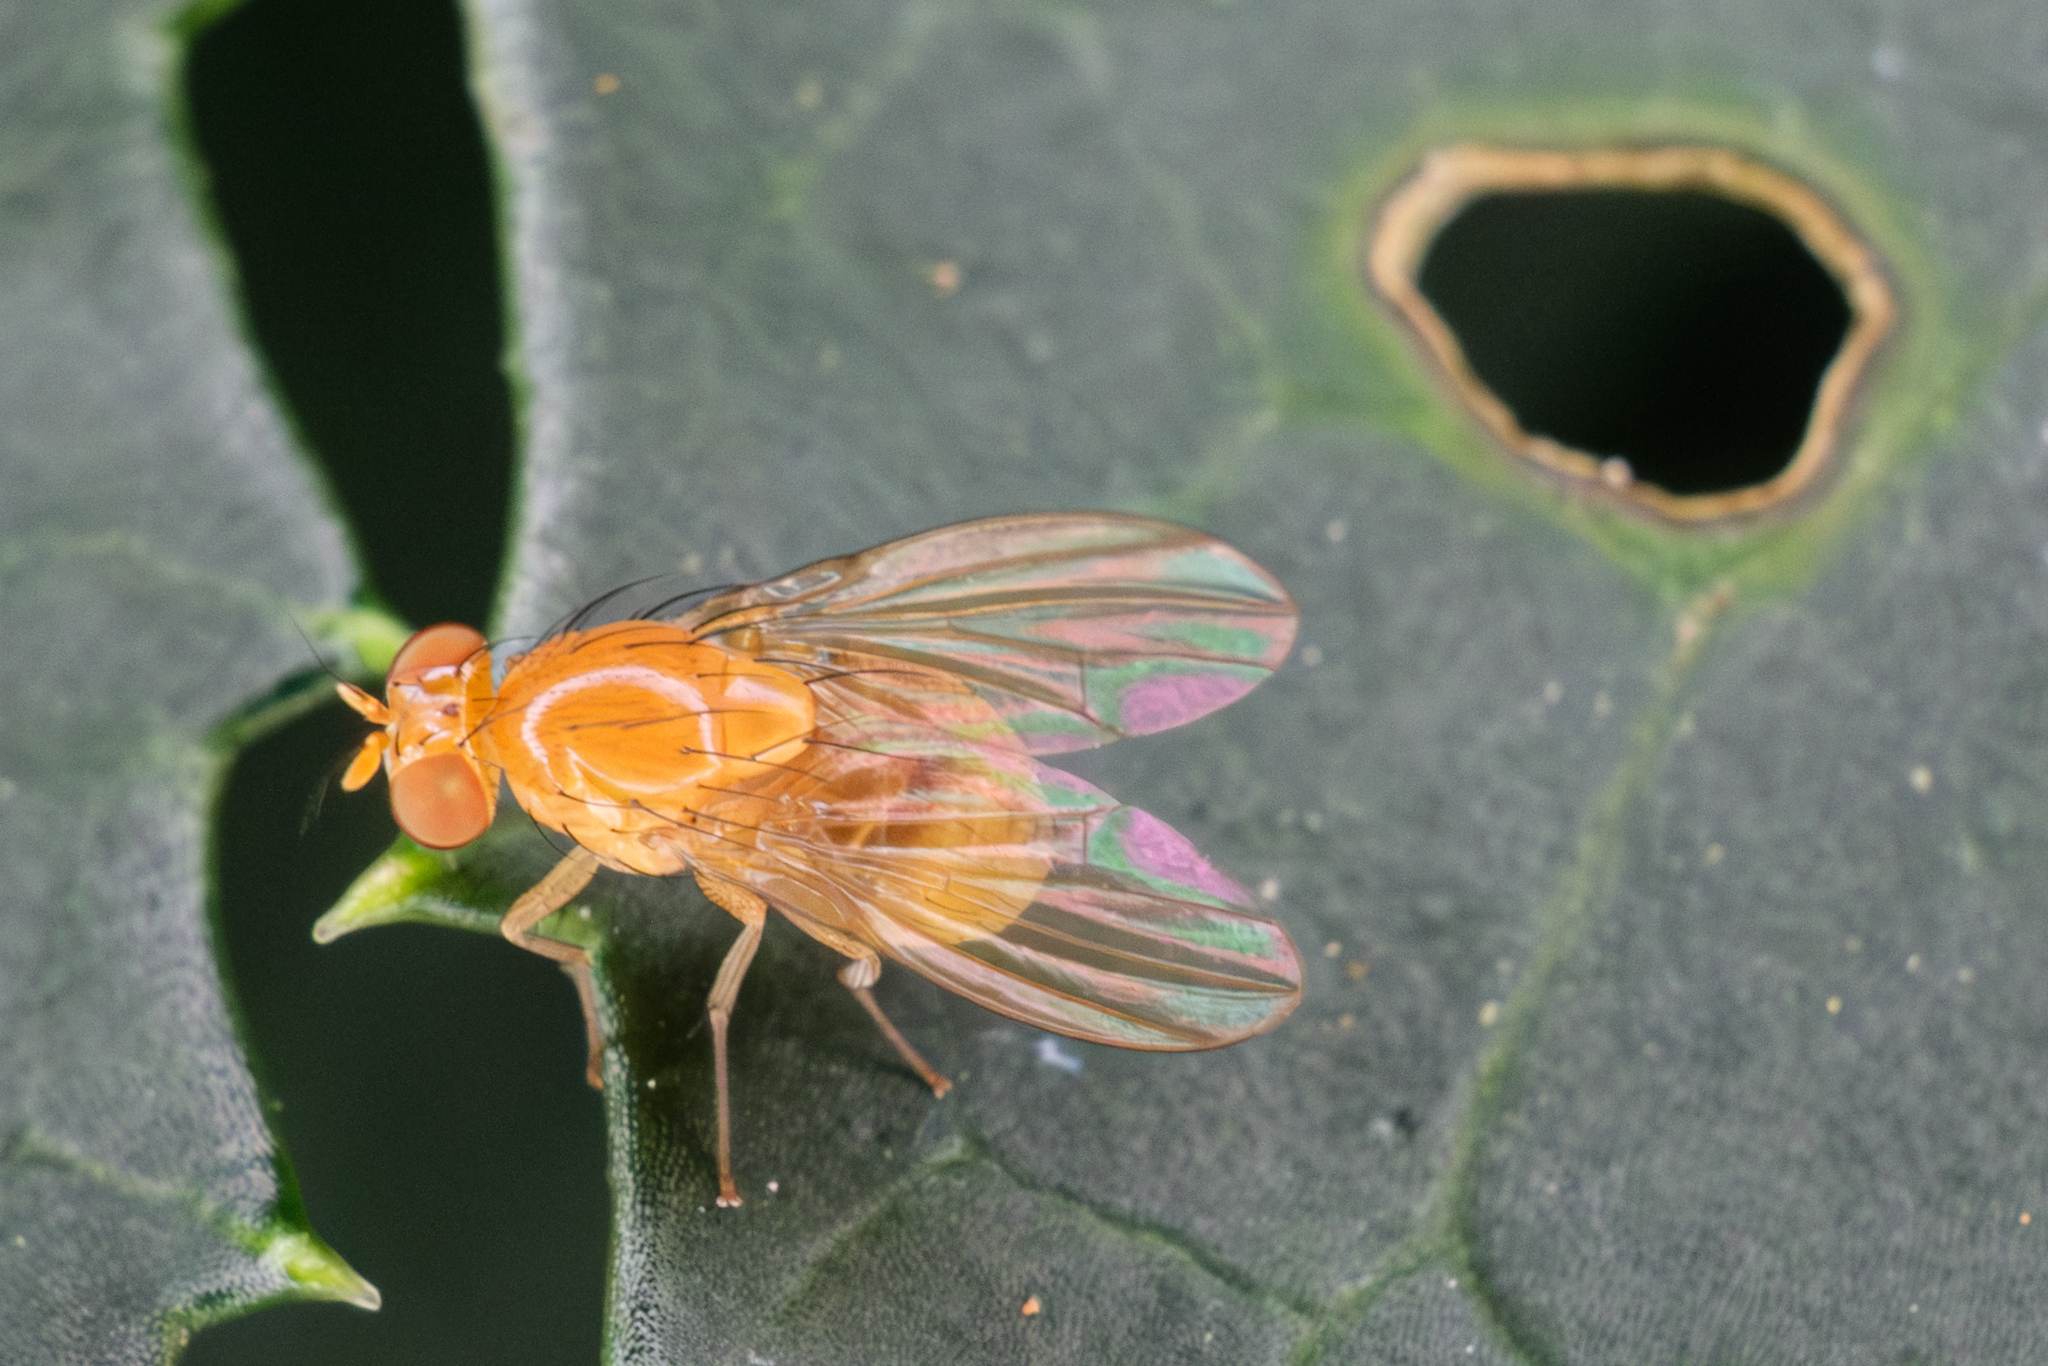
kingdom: Animalia
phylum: Arthropoda
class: Insecta
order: Diptera
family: Lauxaniidae
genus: Neogriphoneura
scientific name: Neogriphoneura sordida
